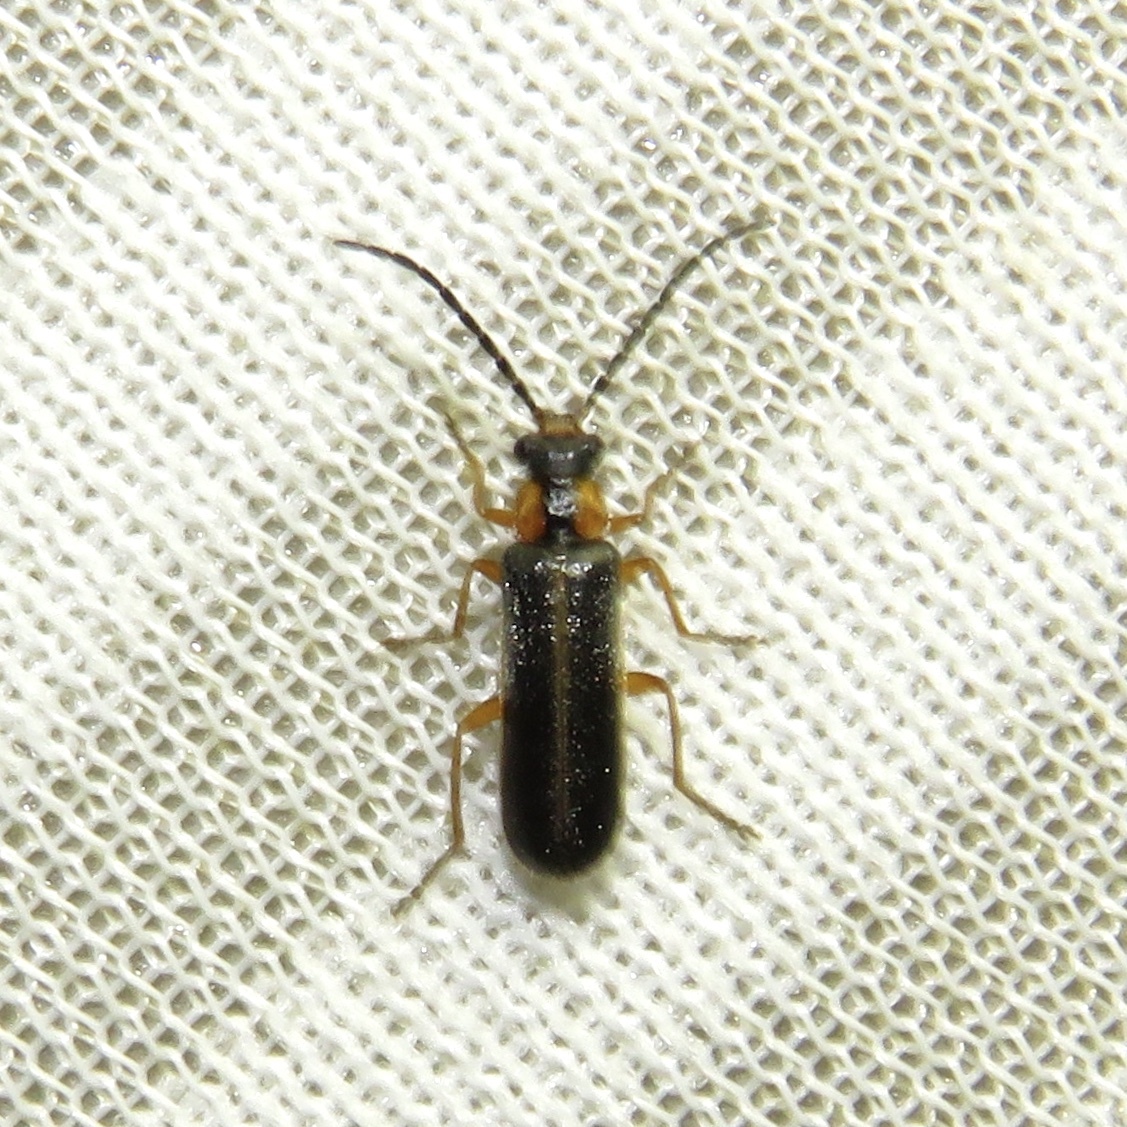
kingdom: Animalia
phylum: Arthropoda
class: Insecta
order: Coleoptera
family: Cantharidae
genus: Podabrus
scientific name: Podabrus modestus
